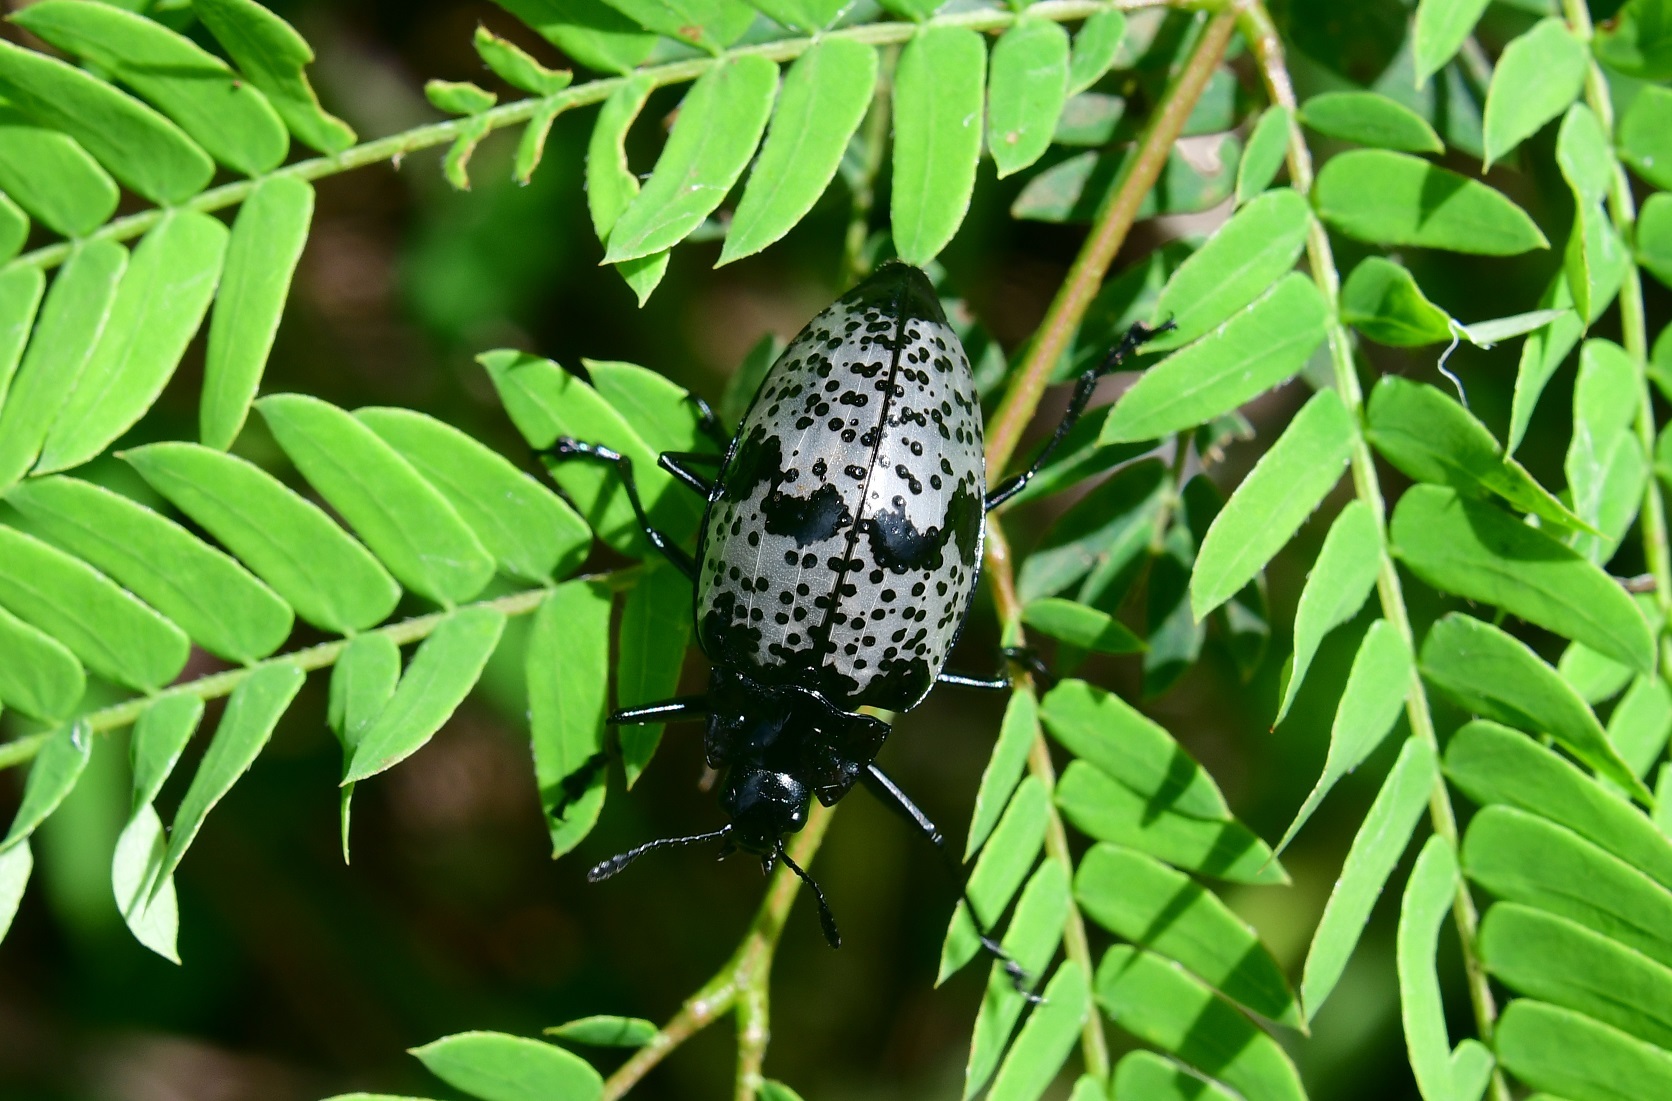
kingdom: Animalia
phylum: Arthropoda
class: Insecta
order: Coleoptera
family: Erotylidae
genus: Gibbifer
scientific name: Gibbifer
